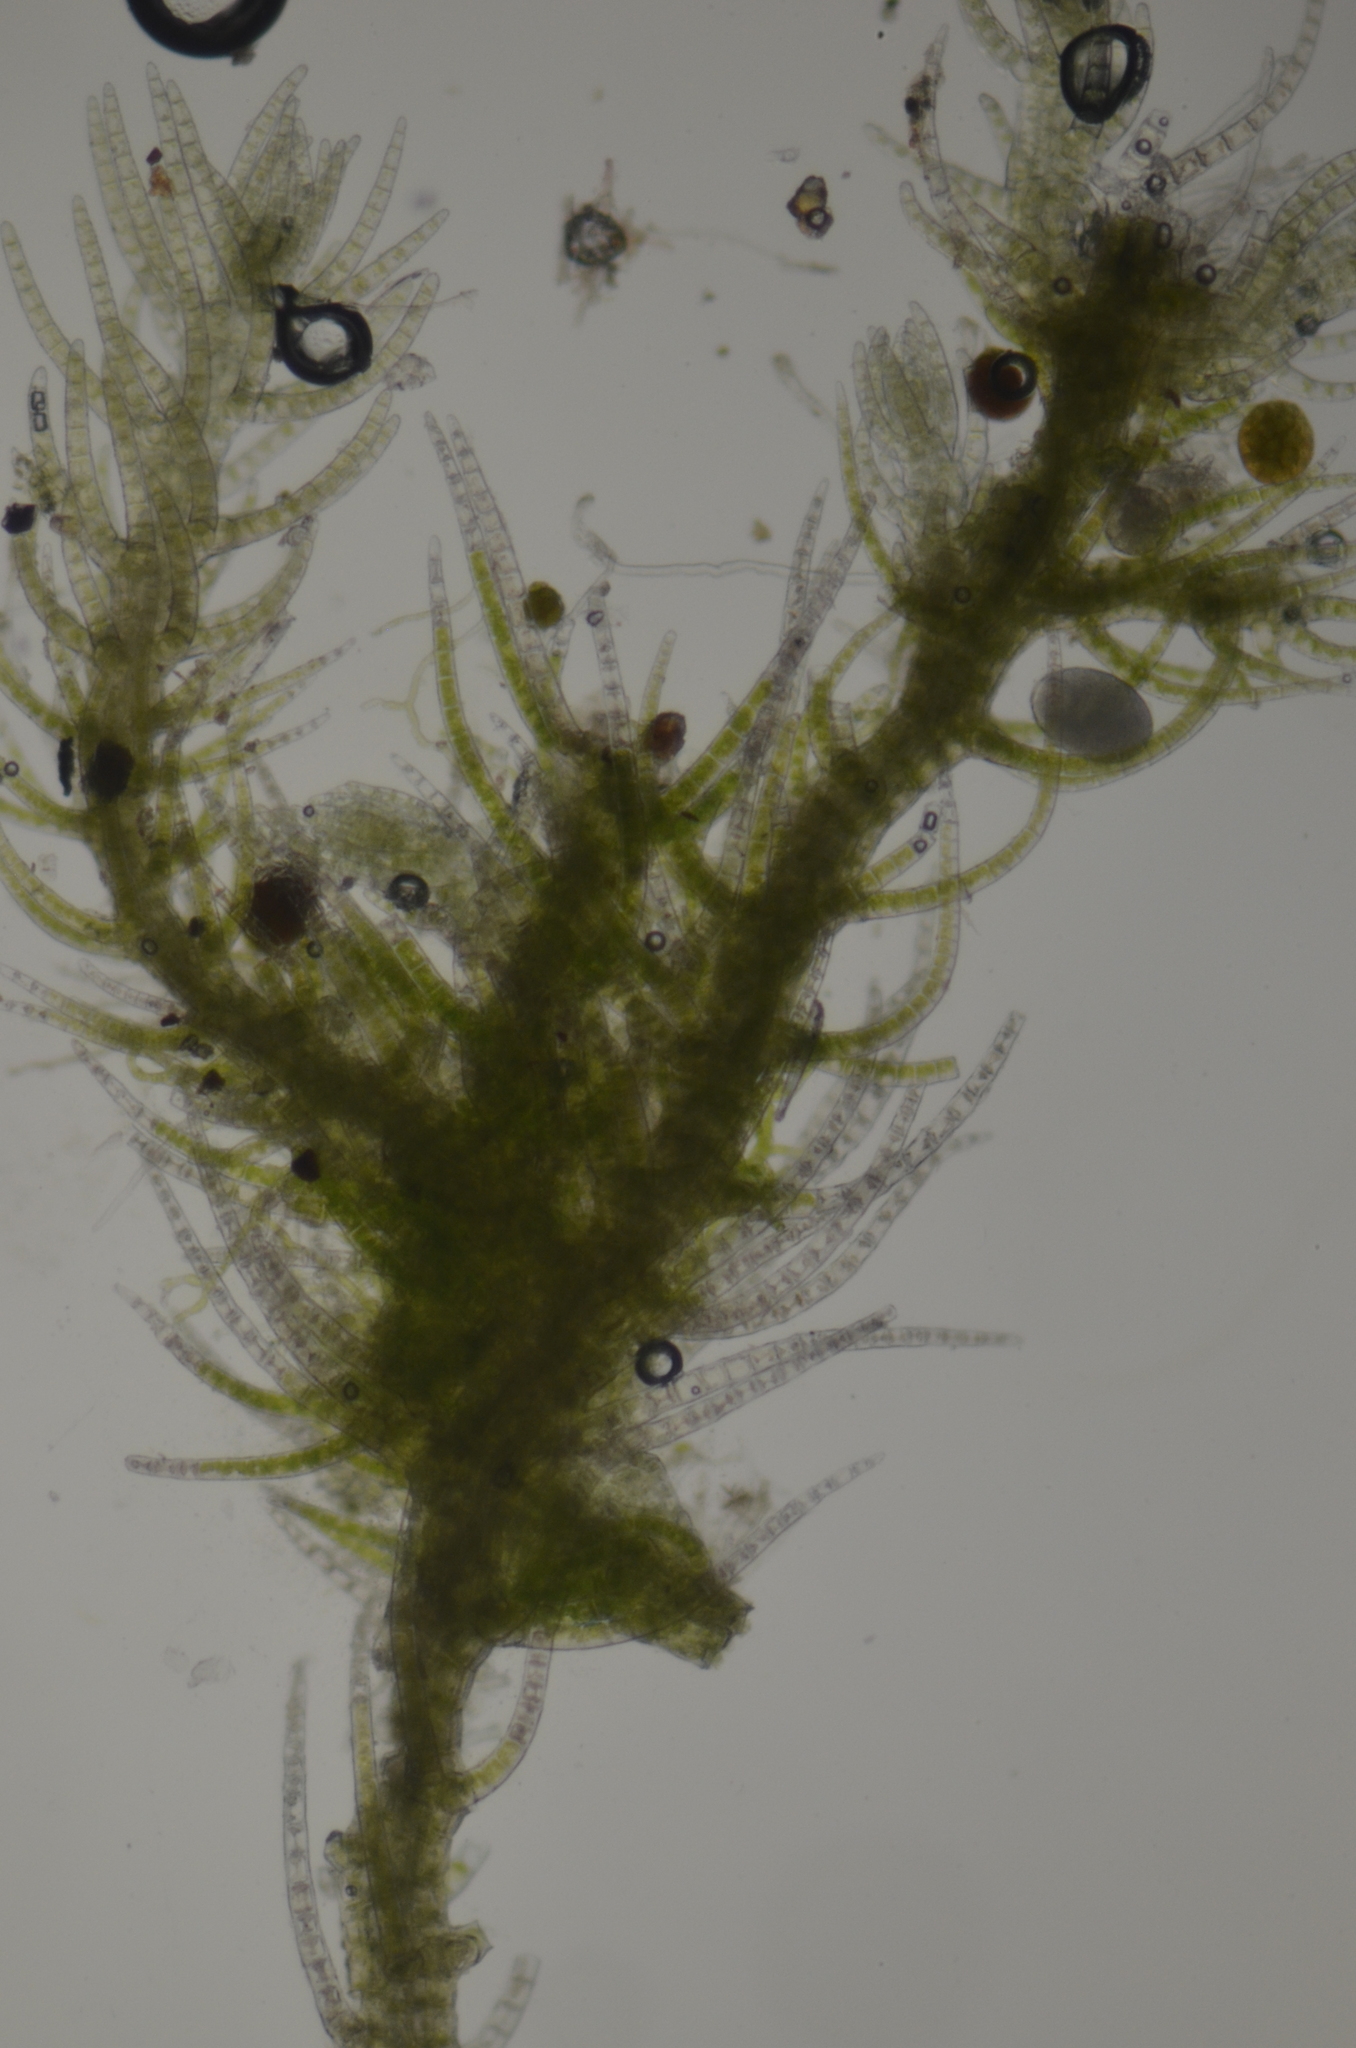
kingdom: Plantae
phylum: Marchantiophyta
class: Jungermanniopsida
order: Jungermanniales
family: Blepharostomataceae
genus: Blepharostoma
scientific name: Blepharostoma trichophyllum
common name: Hairy threadwort
